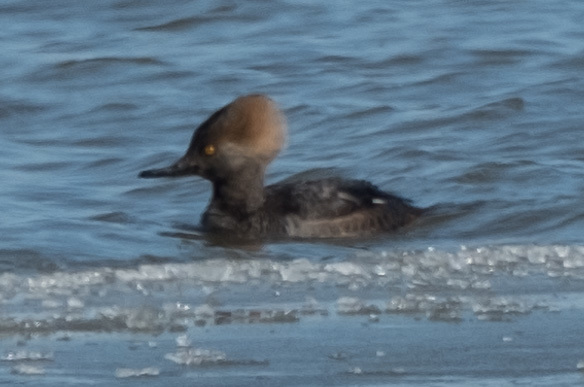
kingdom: Animalia
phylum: Chordata
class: Aves
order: Anseriformes
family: Anatidae
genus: Lophodytes
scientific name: Lophodytes cucullatus
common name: Hooded merganser
